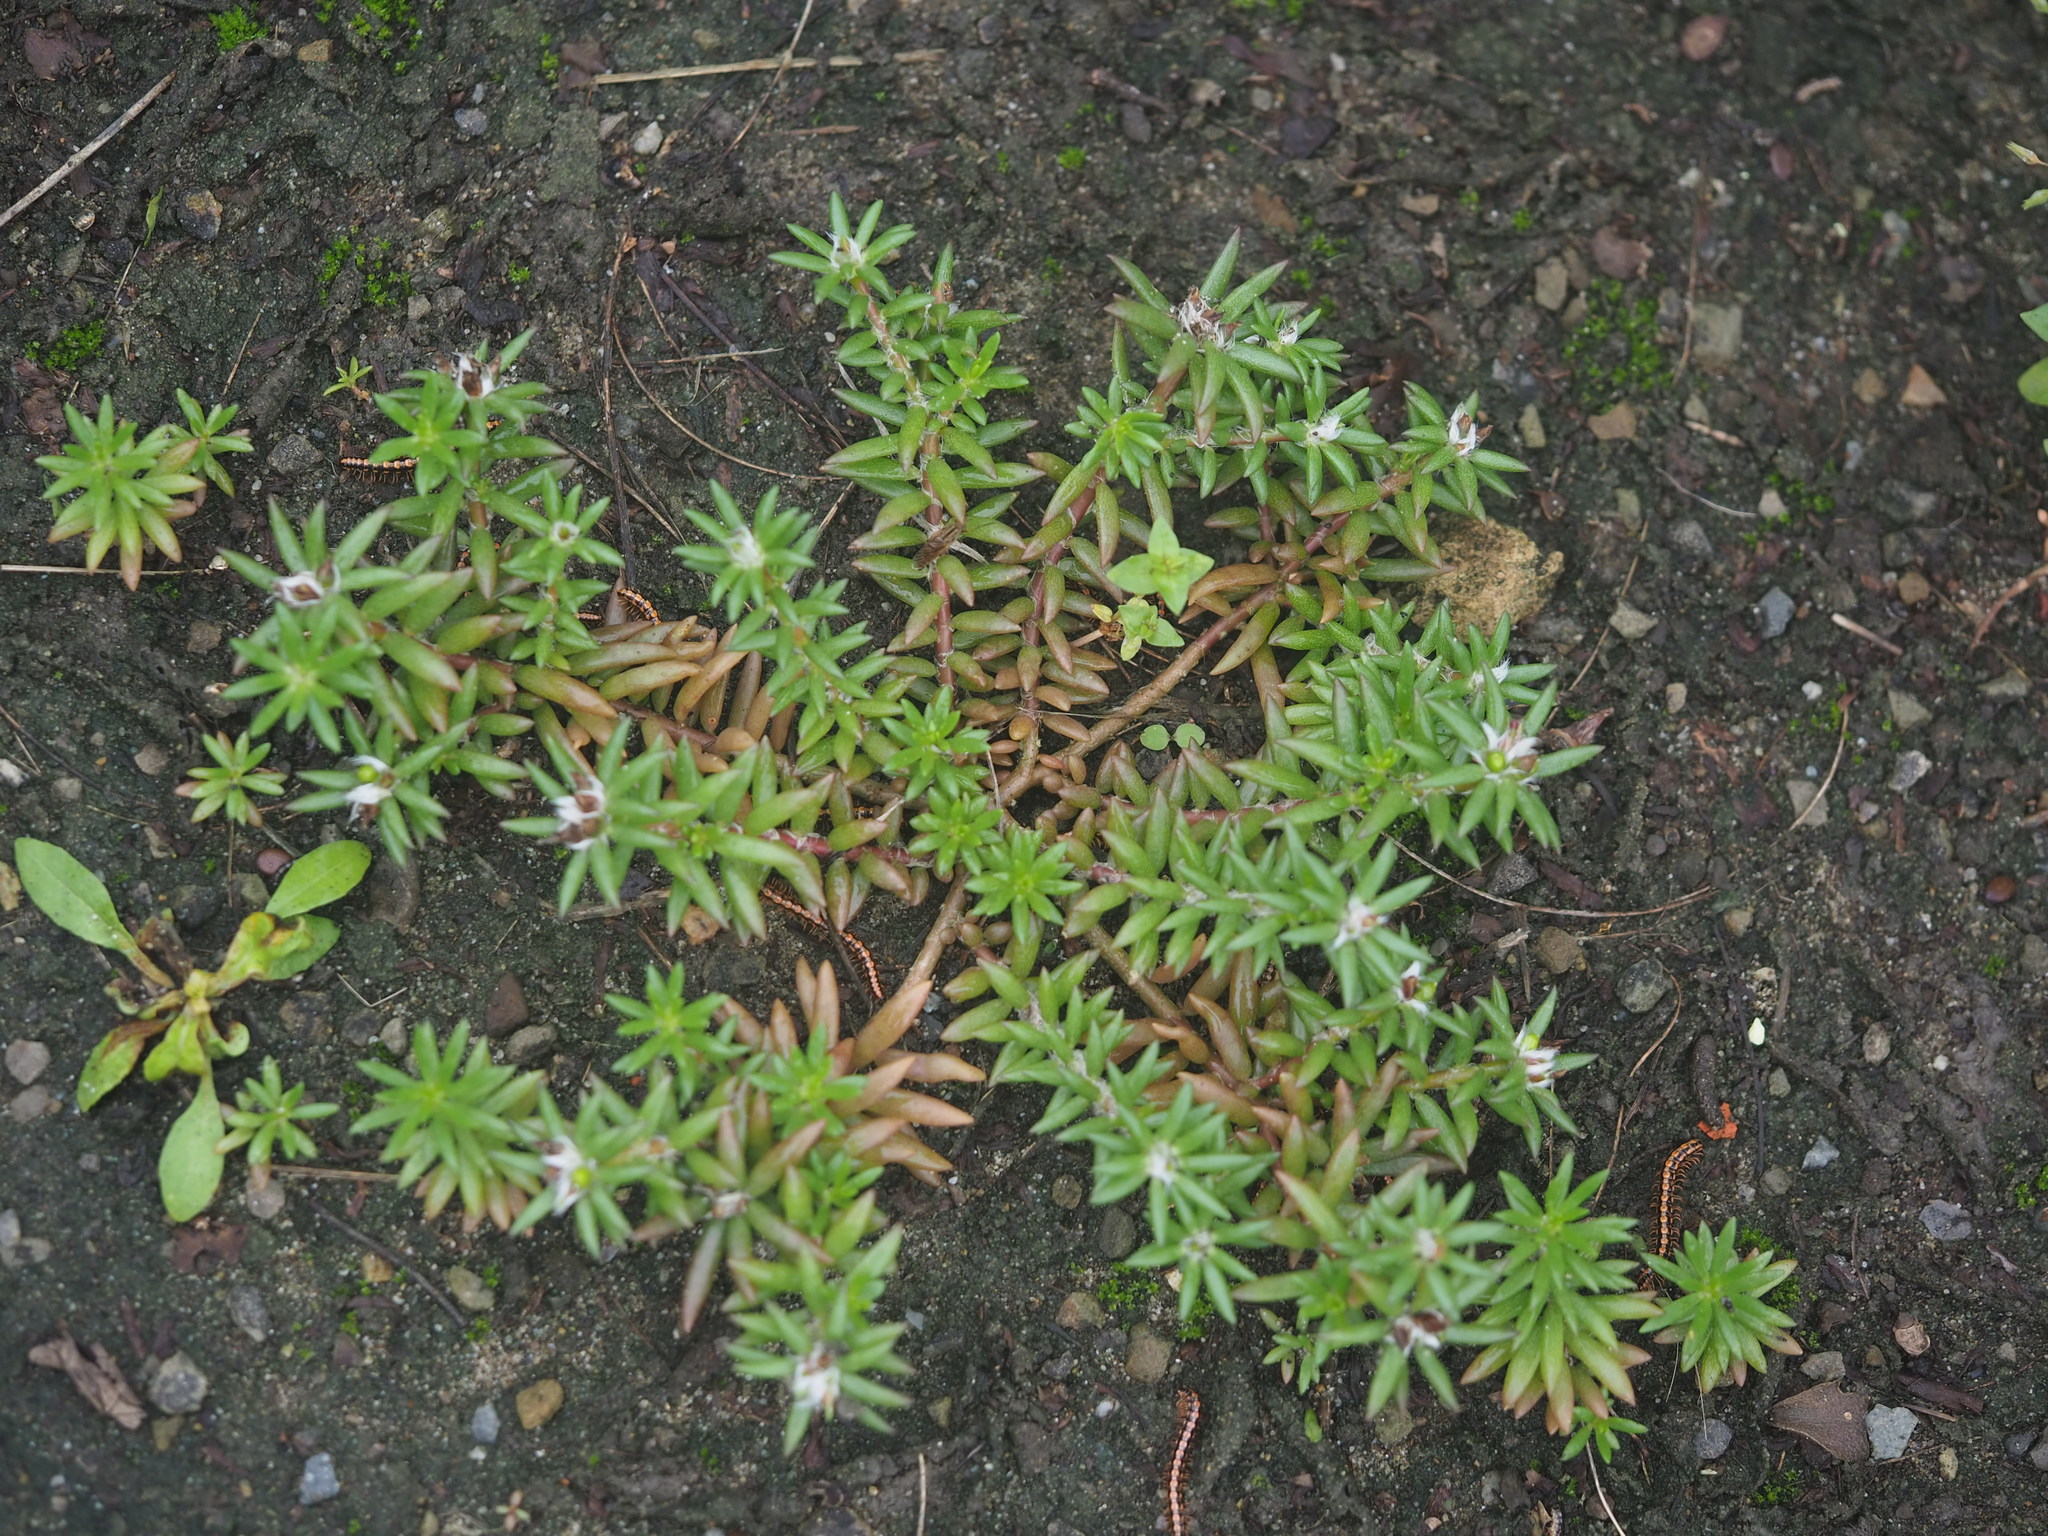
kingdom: Plantae
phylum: Tracheophyta
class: Magnoliopsida
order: Caryophyllales
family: Portulacaceae
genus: Portulaca
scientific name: Portulaca pilosa
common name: Kiss me quick
